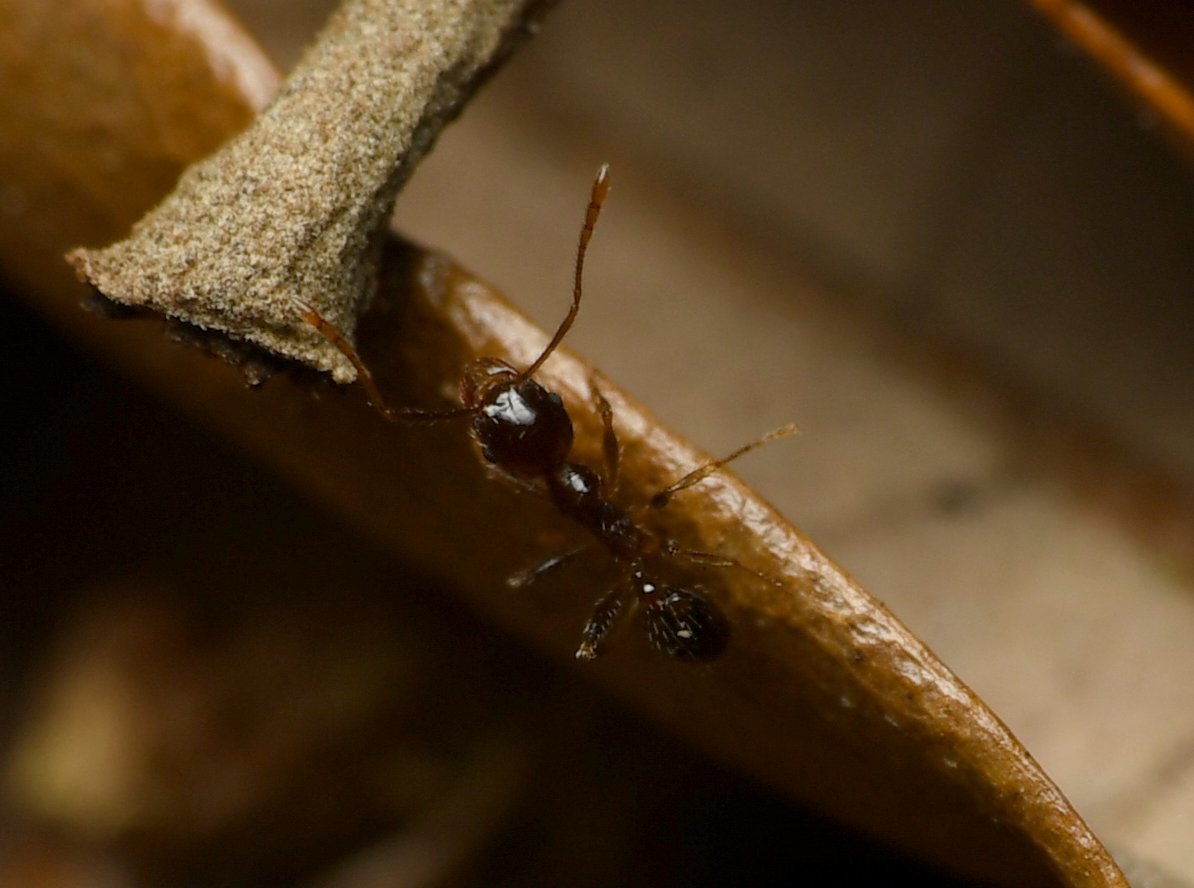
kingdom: Animalia
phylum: Arthropoda
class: Insecta
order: Hymenoptera
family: Formicidae
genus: Pheidole
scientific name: Pheidole megacephala
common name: Bigheaded ant
